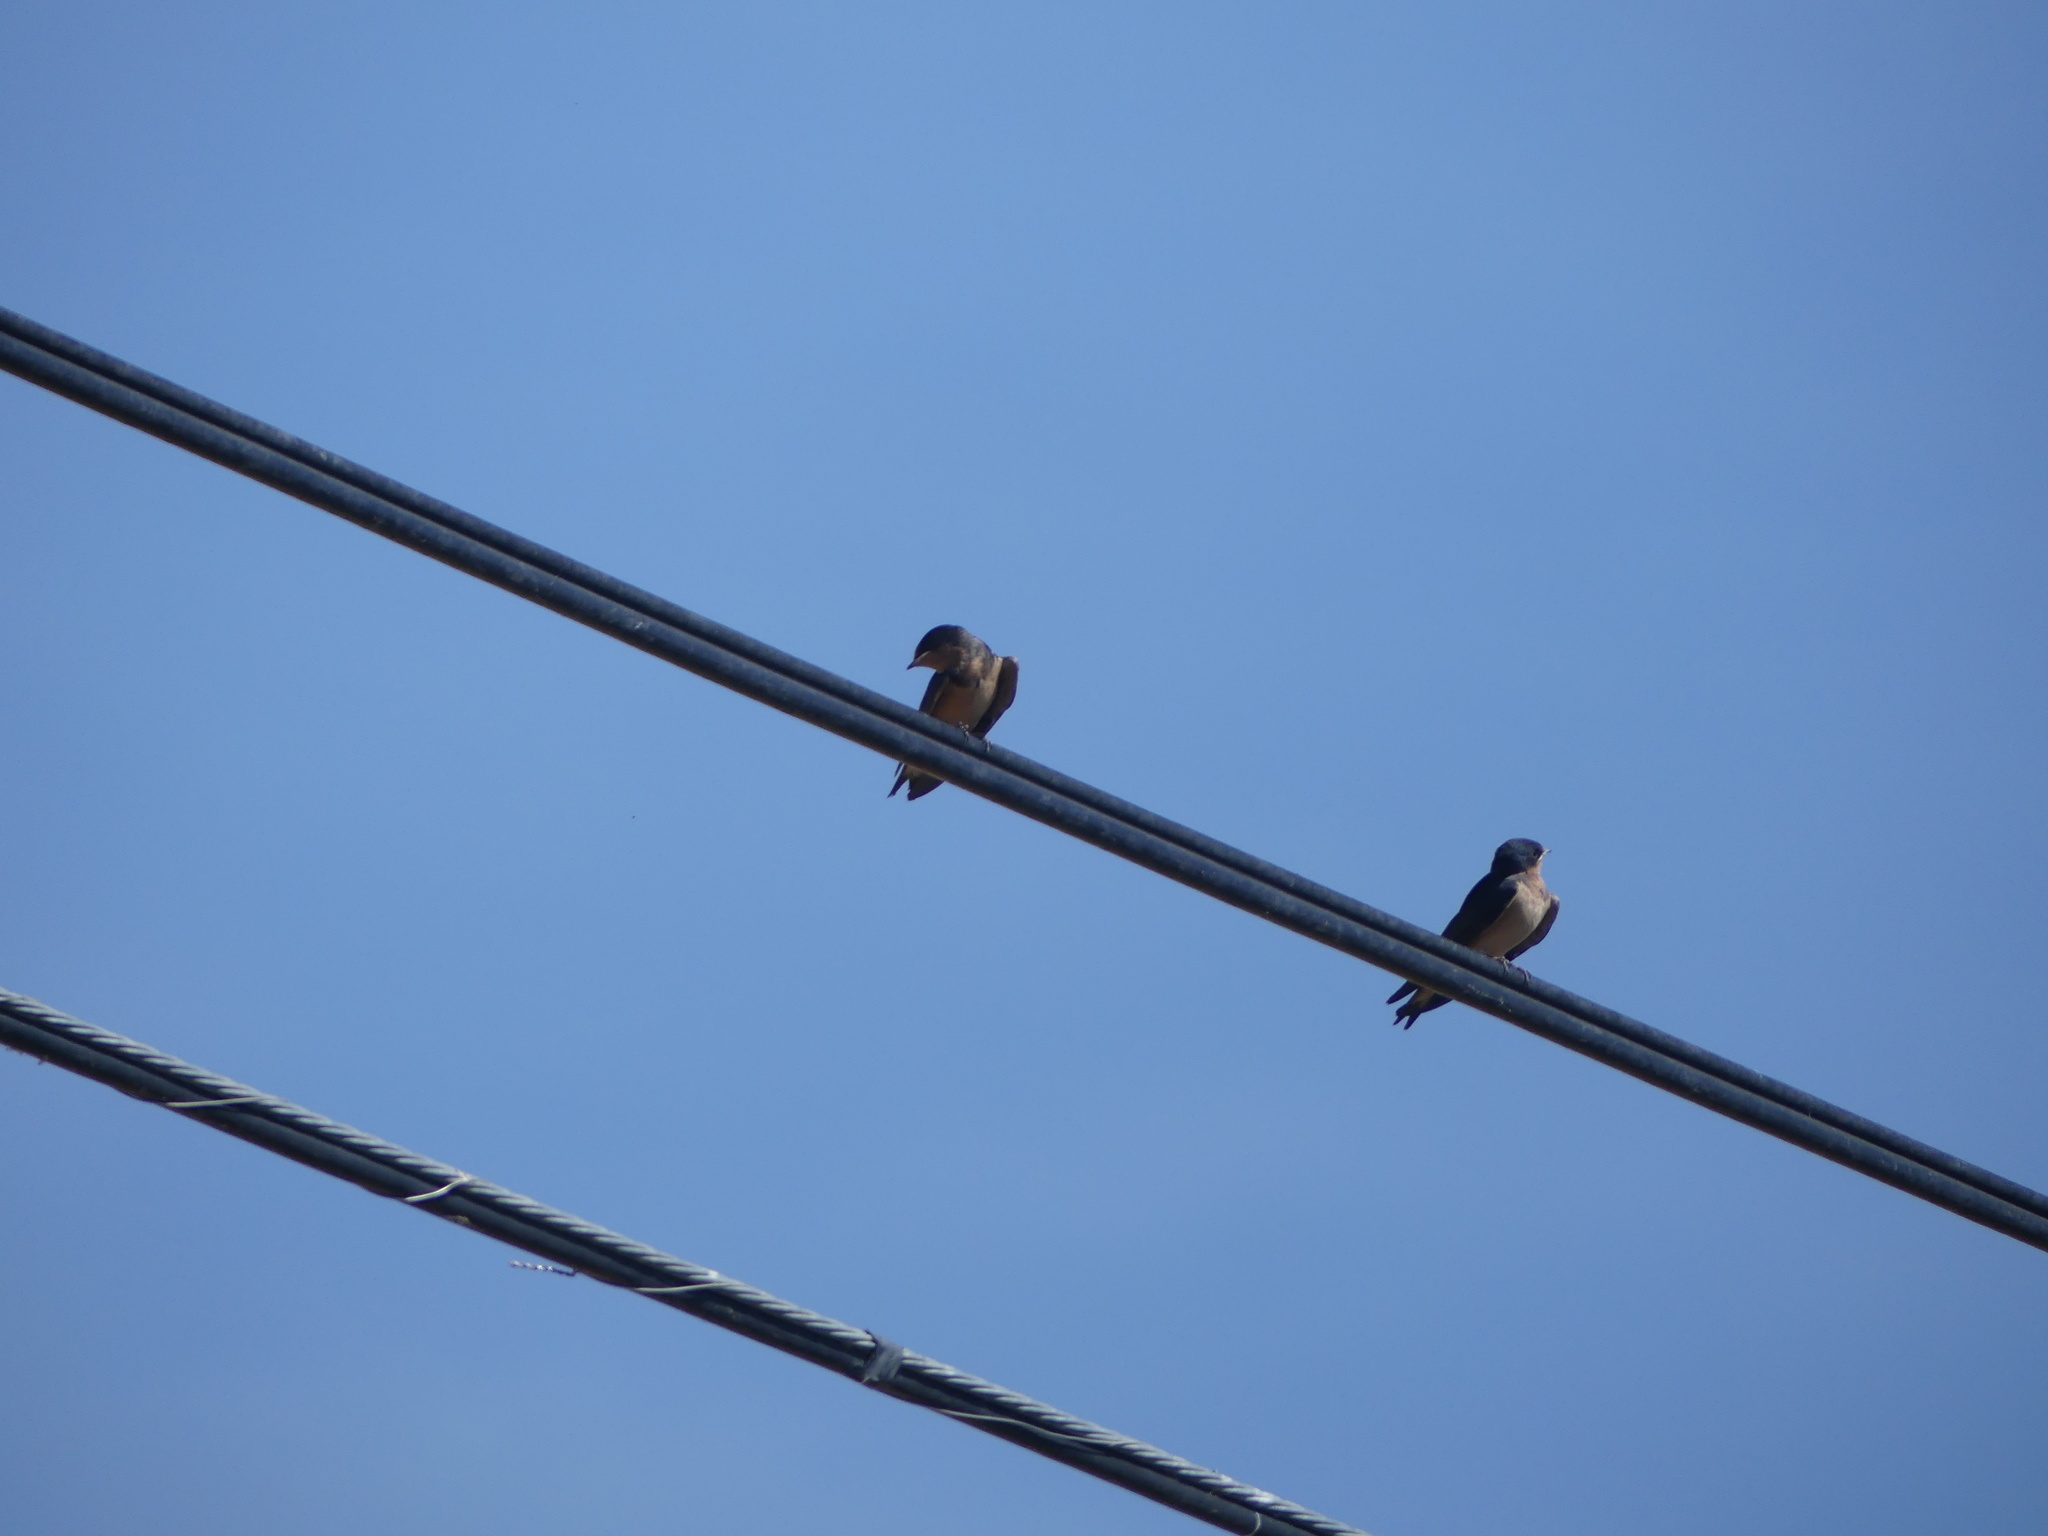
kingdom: Animalia
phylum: Chordata
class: Aves
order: Passeriformes
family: Hirundinidae
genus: Hirundo
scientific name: Hirundo rustica
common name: Barn swallow
